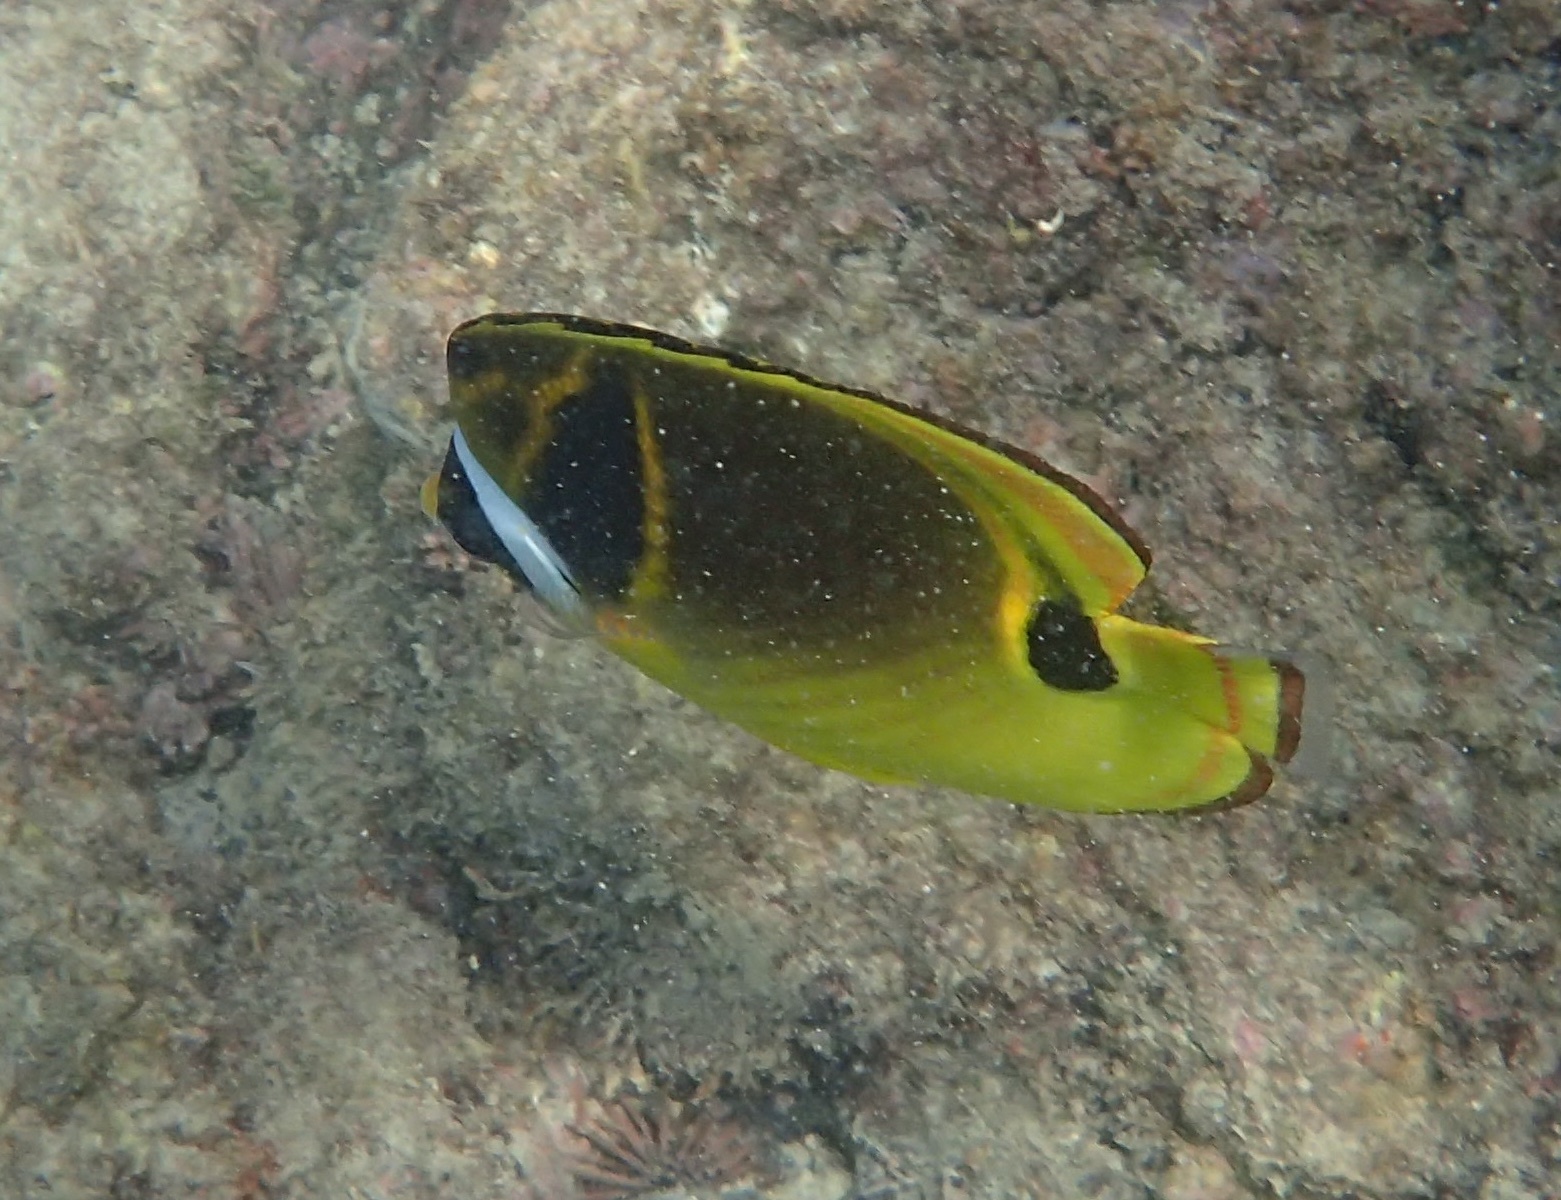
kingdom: Animalia
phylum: Chordata
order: Perciformes
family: Chaetodontidae
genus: Chaetodon
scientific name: Chaetodon lunula
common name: Raccoon butterflyfish
